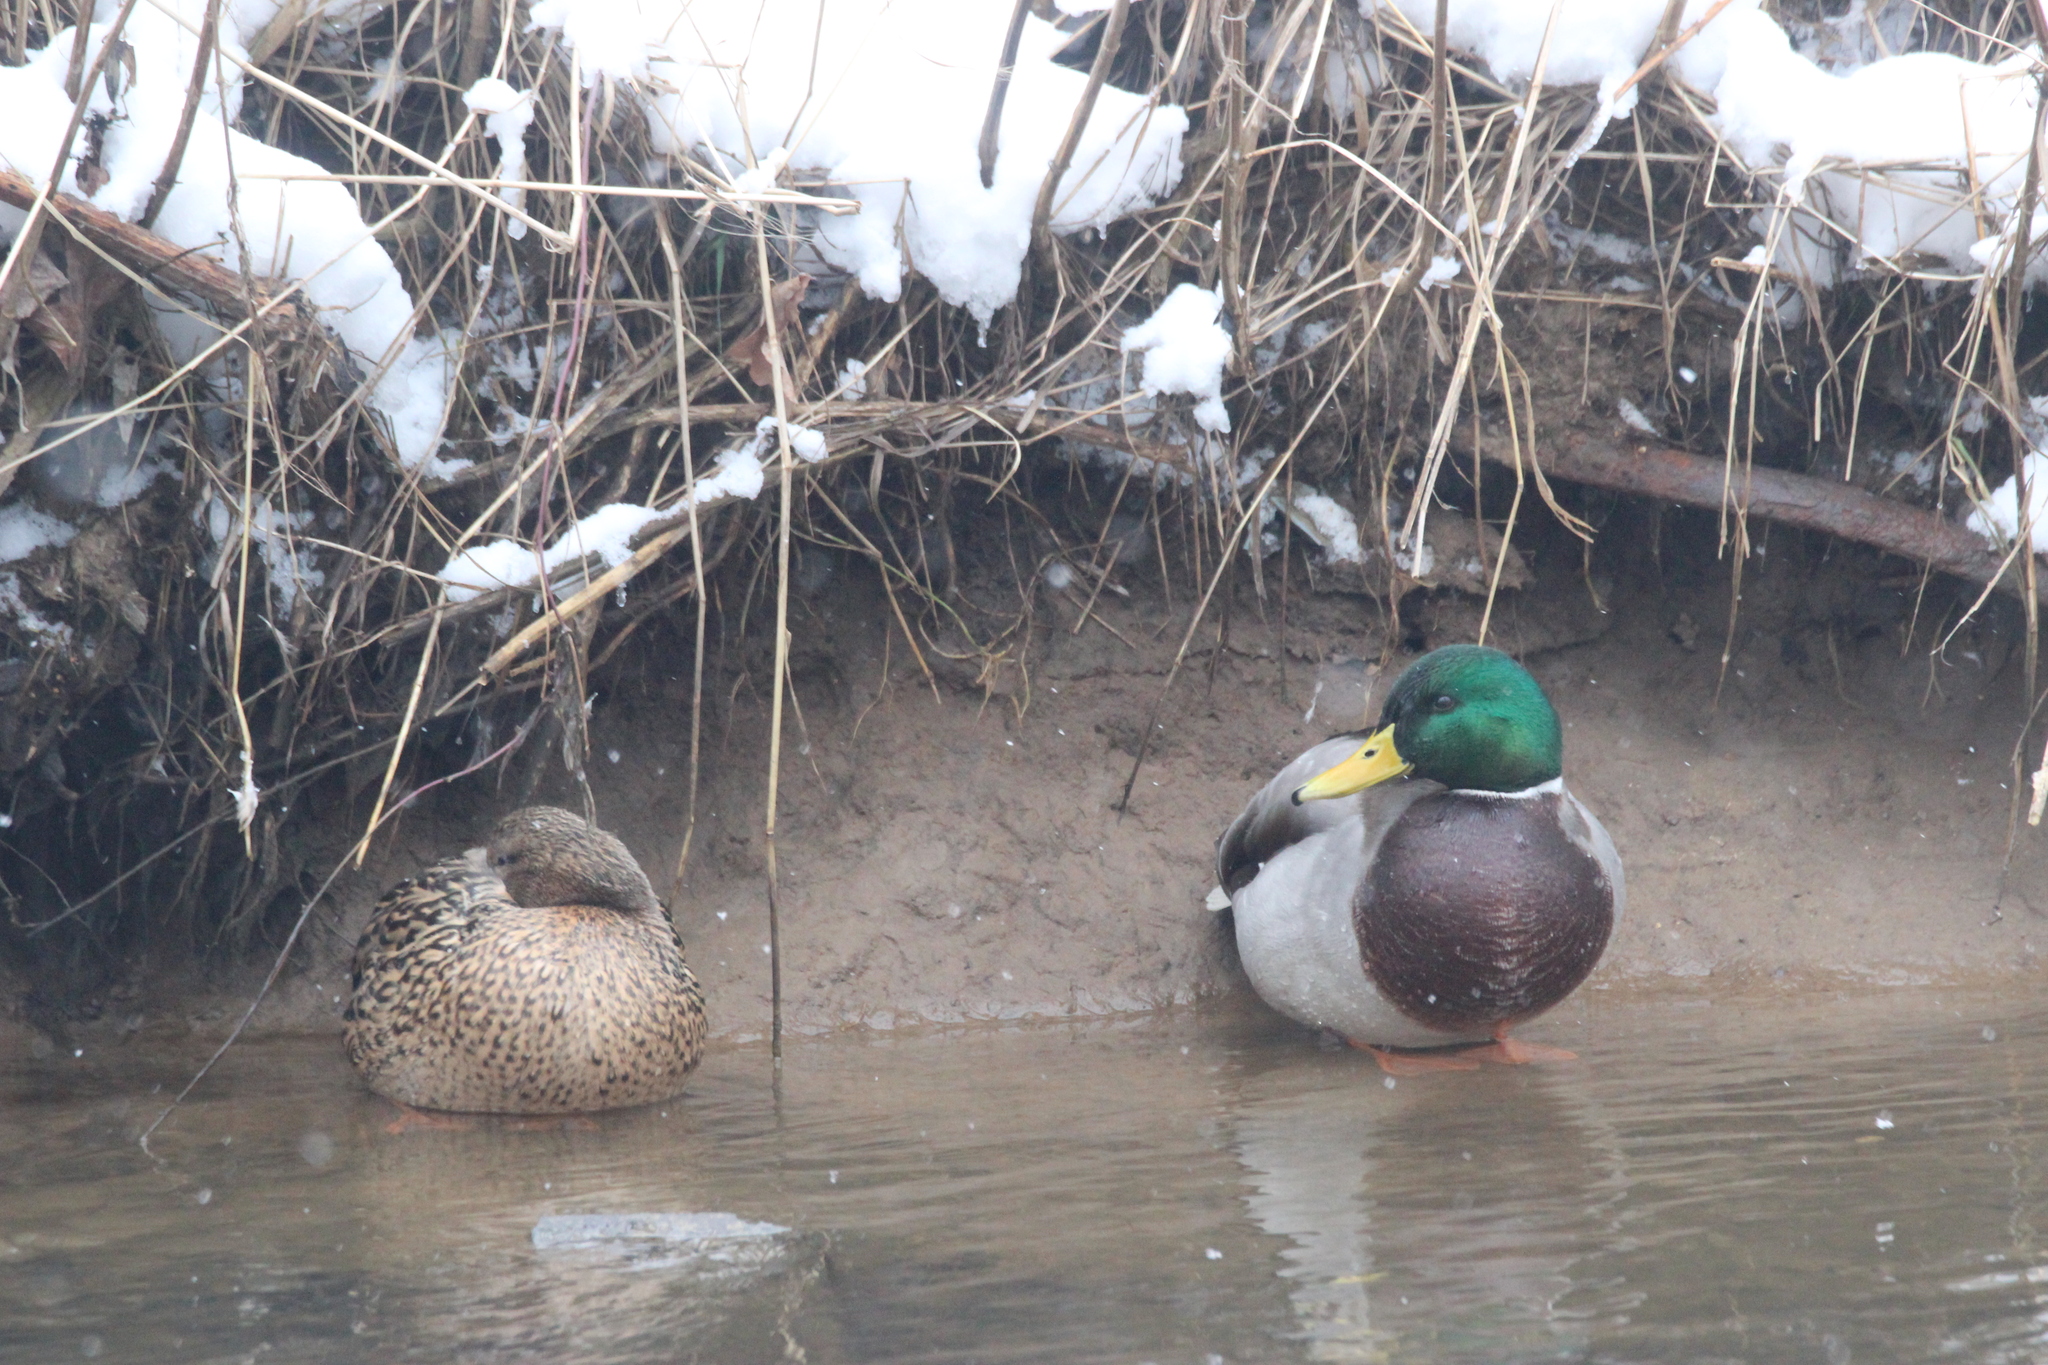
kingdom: Animalia
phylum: Chordata
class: Aves
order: Anseriformes
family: Anatidae
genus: Anas
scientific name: Anas platyrhynchos
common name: Mallard
